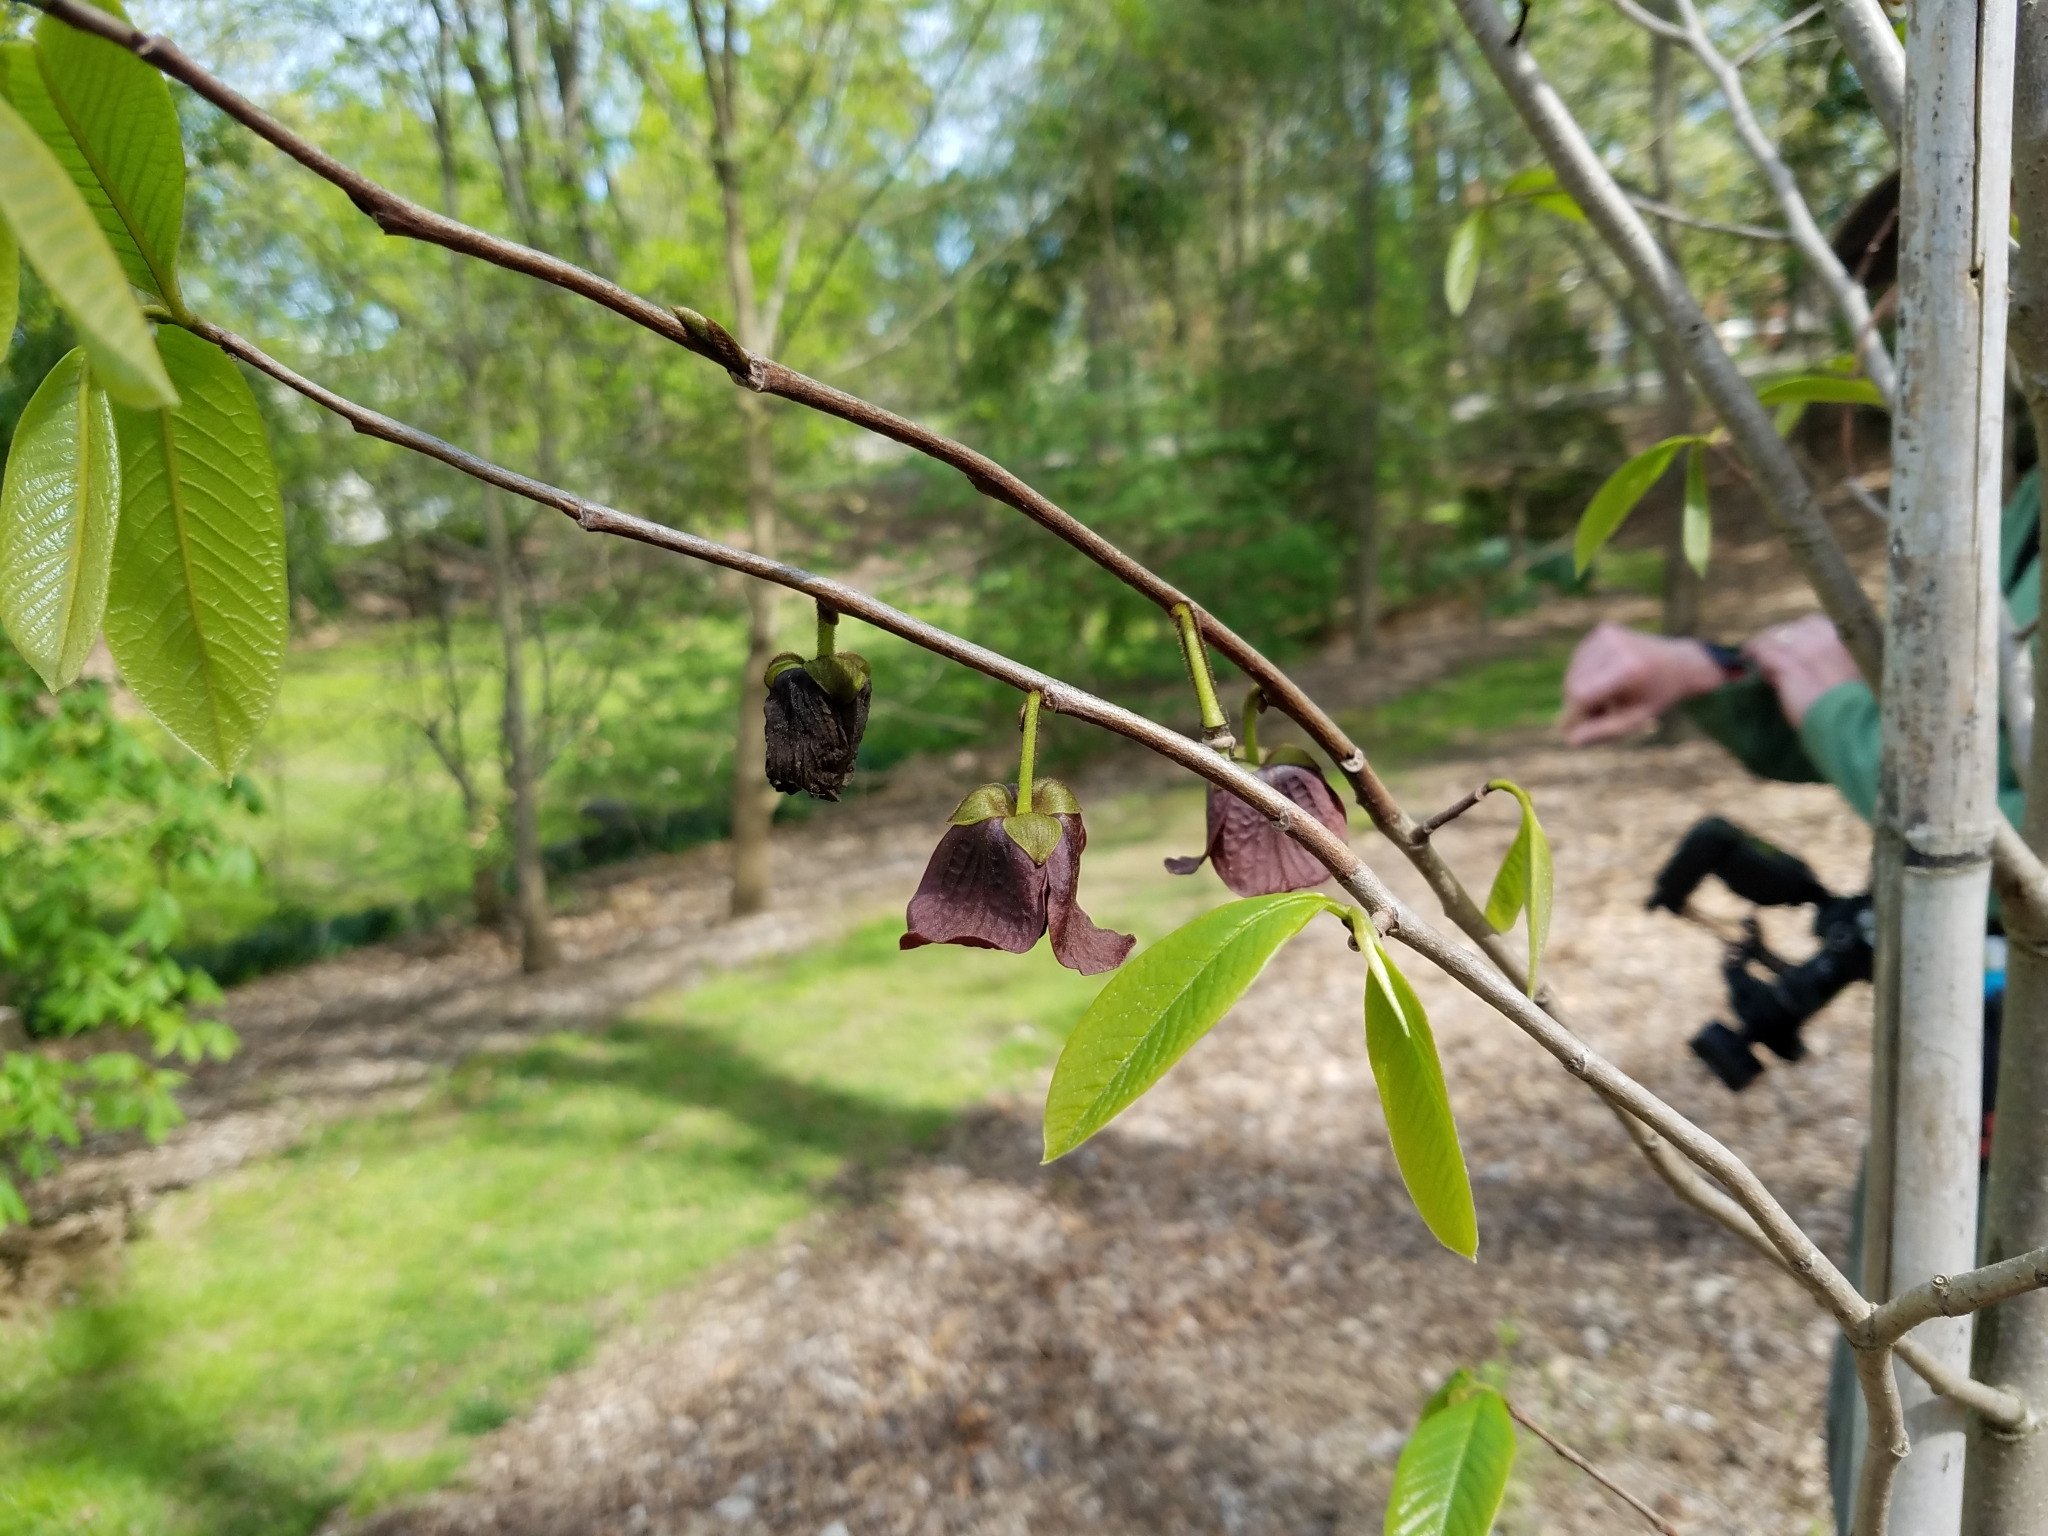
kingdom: Plantae
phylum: Tracheophyta
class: Magnoliopsida
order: Magnoliales
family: Annonaceae
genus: Asimina
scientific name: Asimina triloba
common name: Dog-banana
